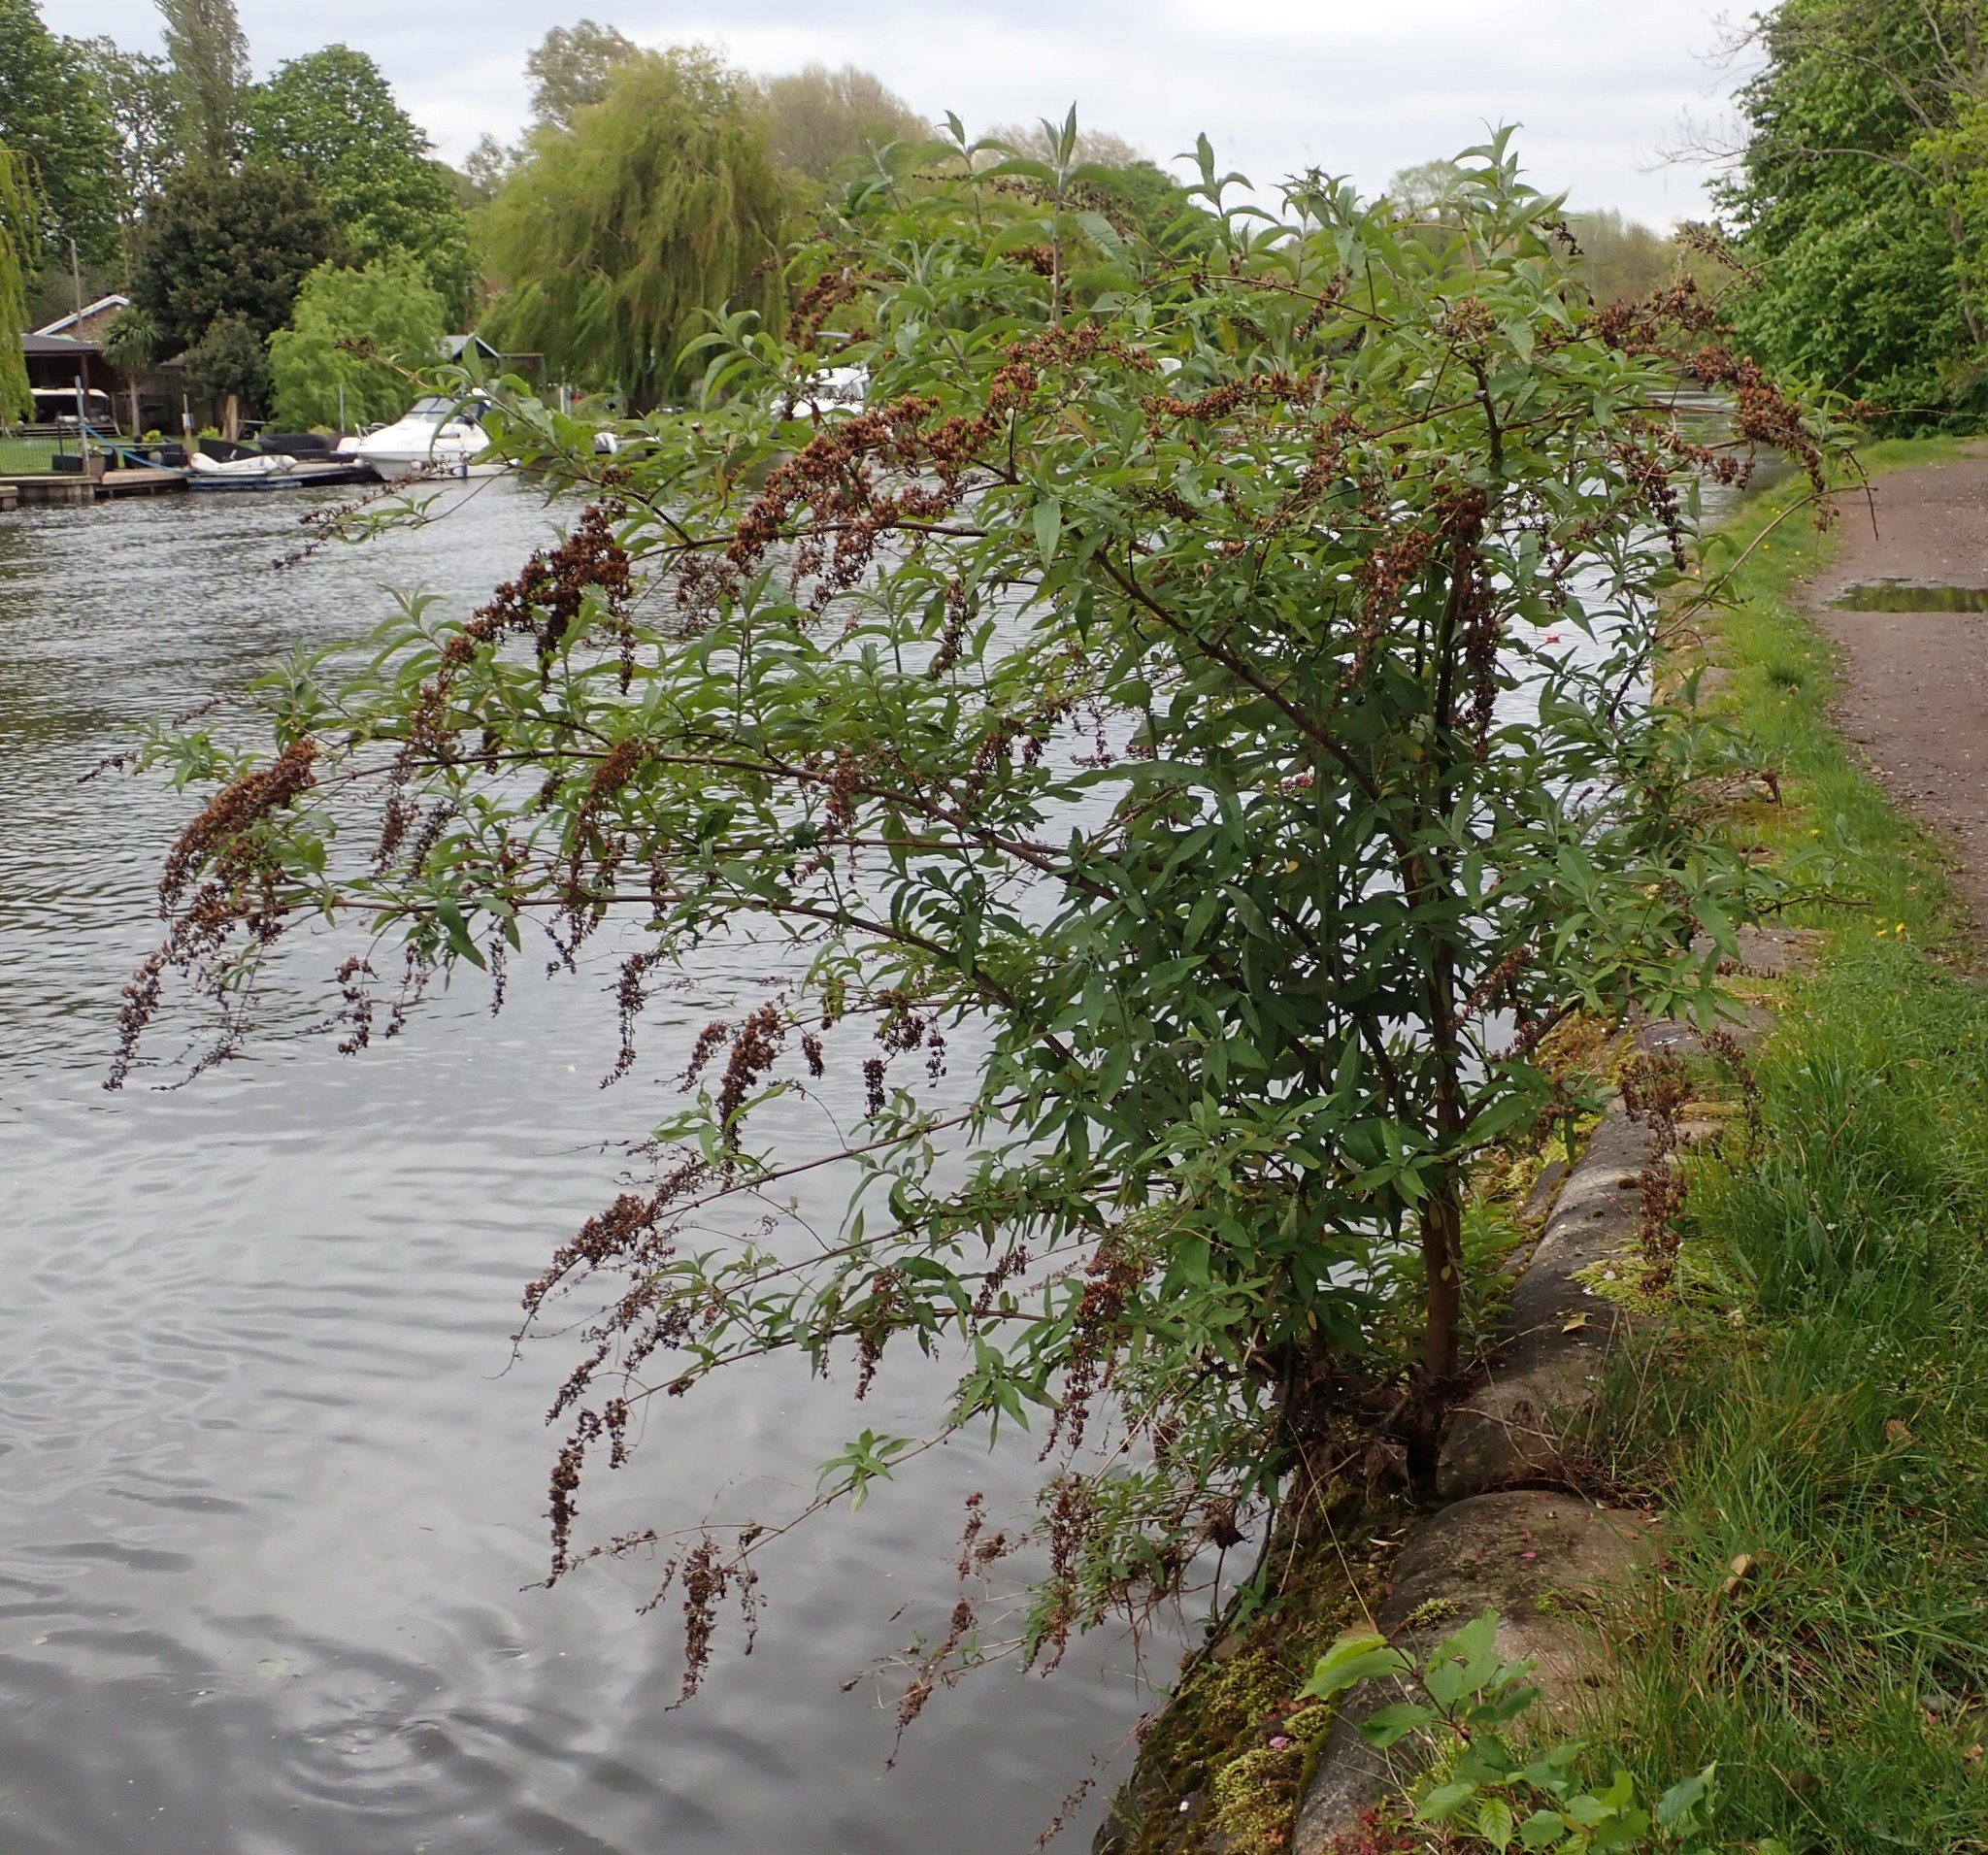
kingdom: Plantae
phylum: Tracheophyta
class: Magnoliopsida
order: Lamiales
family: Scrophulariaceae
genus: Buddleja
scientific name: Buddleja davidii
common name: Butterfly-bush
